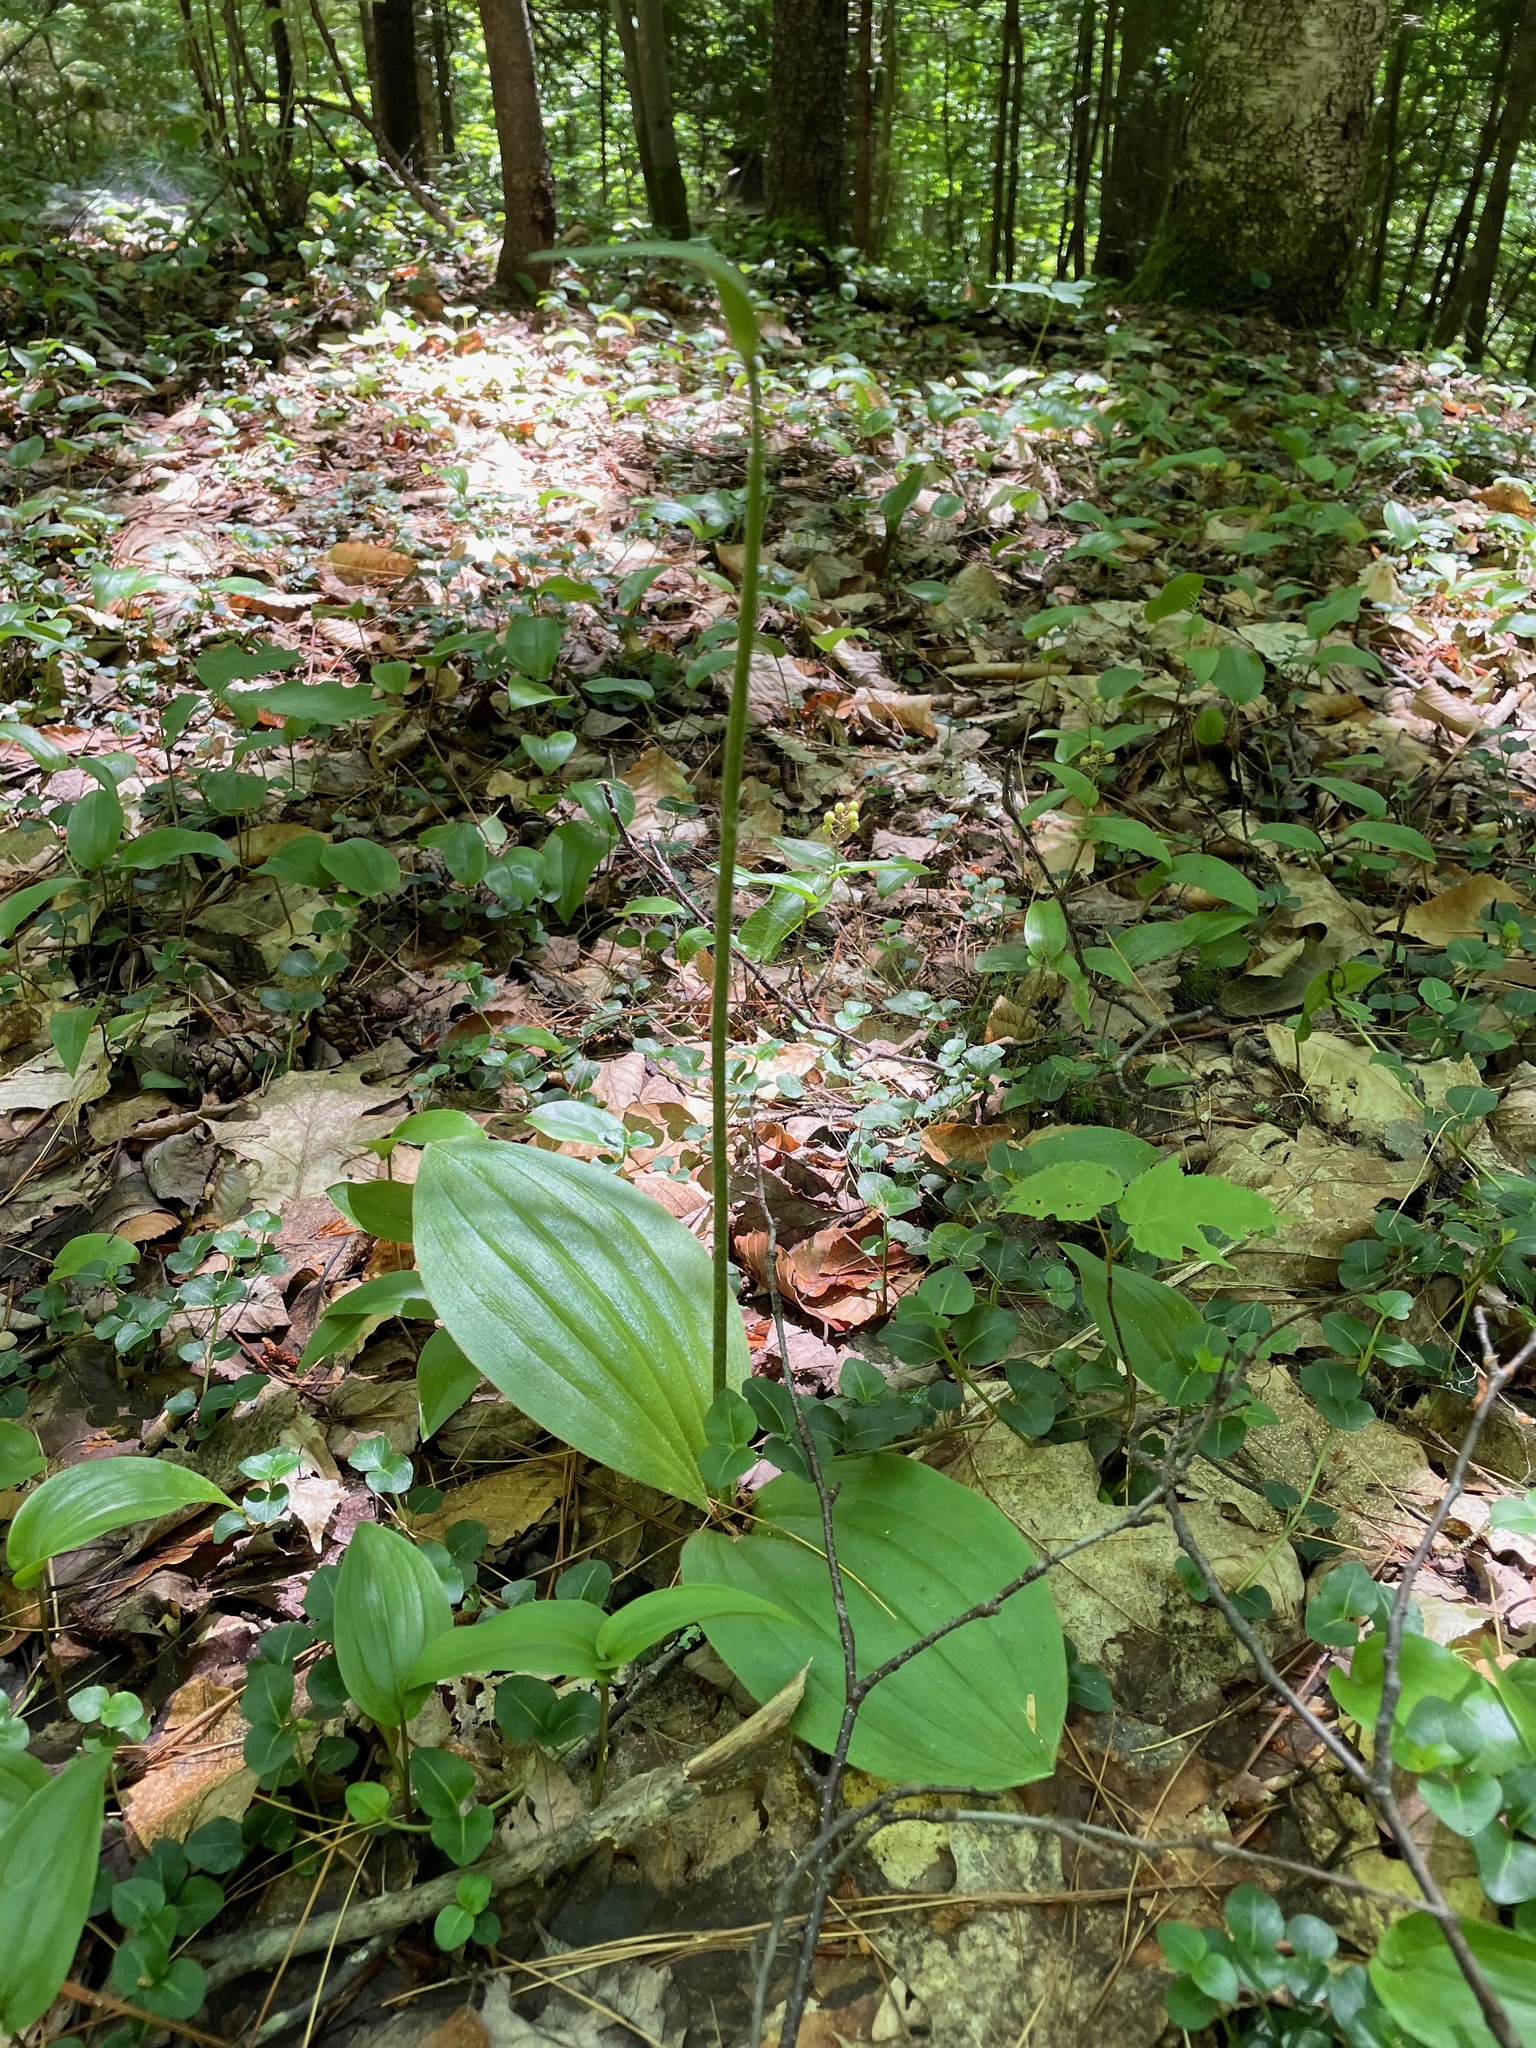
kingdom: Plantae
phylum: Tracheophyta
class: Liliopsida
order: Asparagales
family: Orchidaceae
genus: Cypripedium
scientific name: Cypripedium acaule
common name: Pink lady's-slipper
